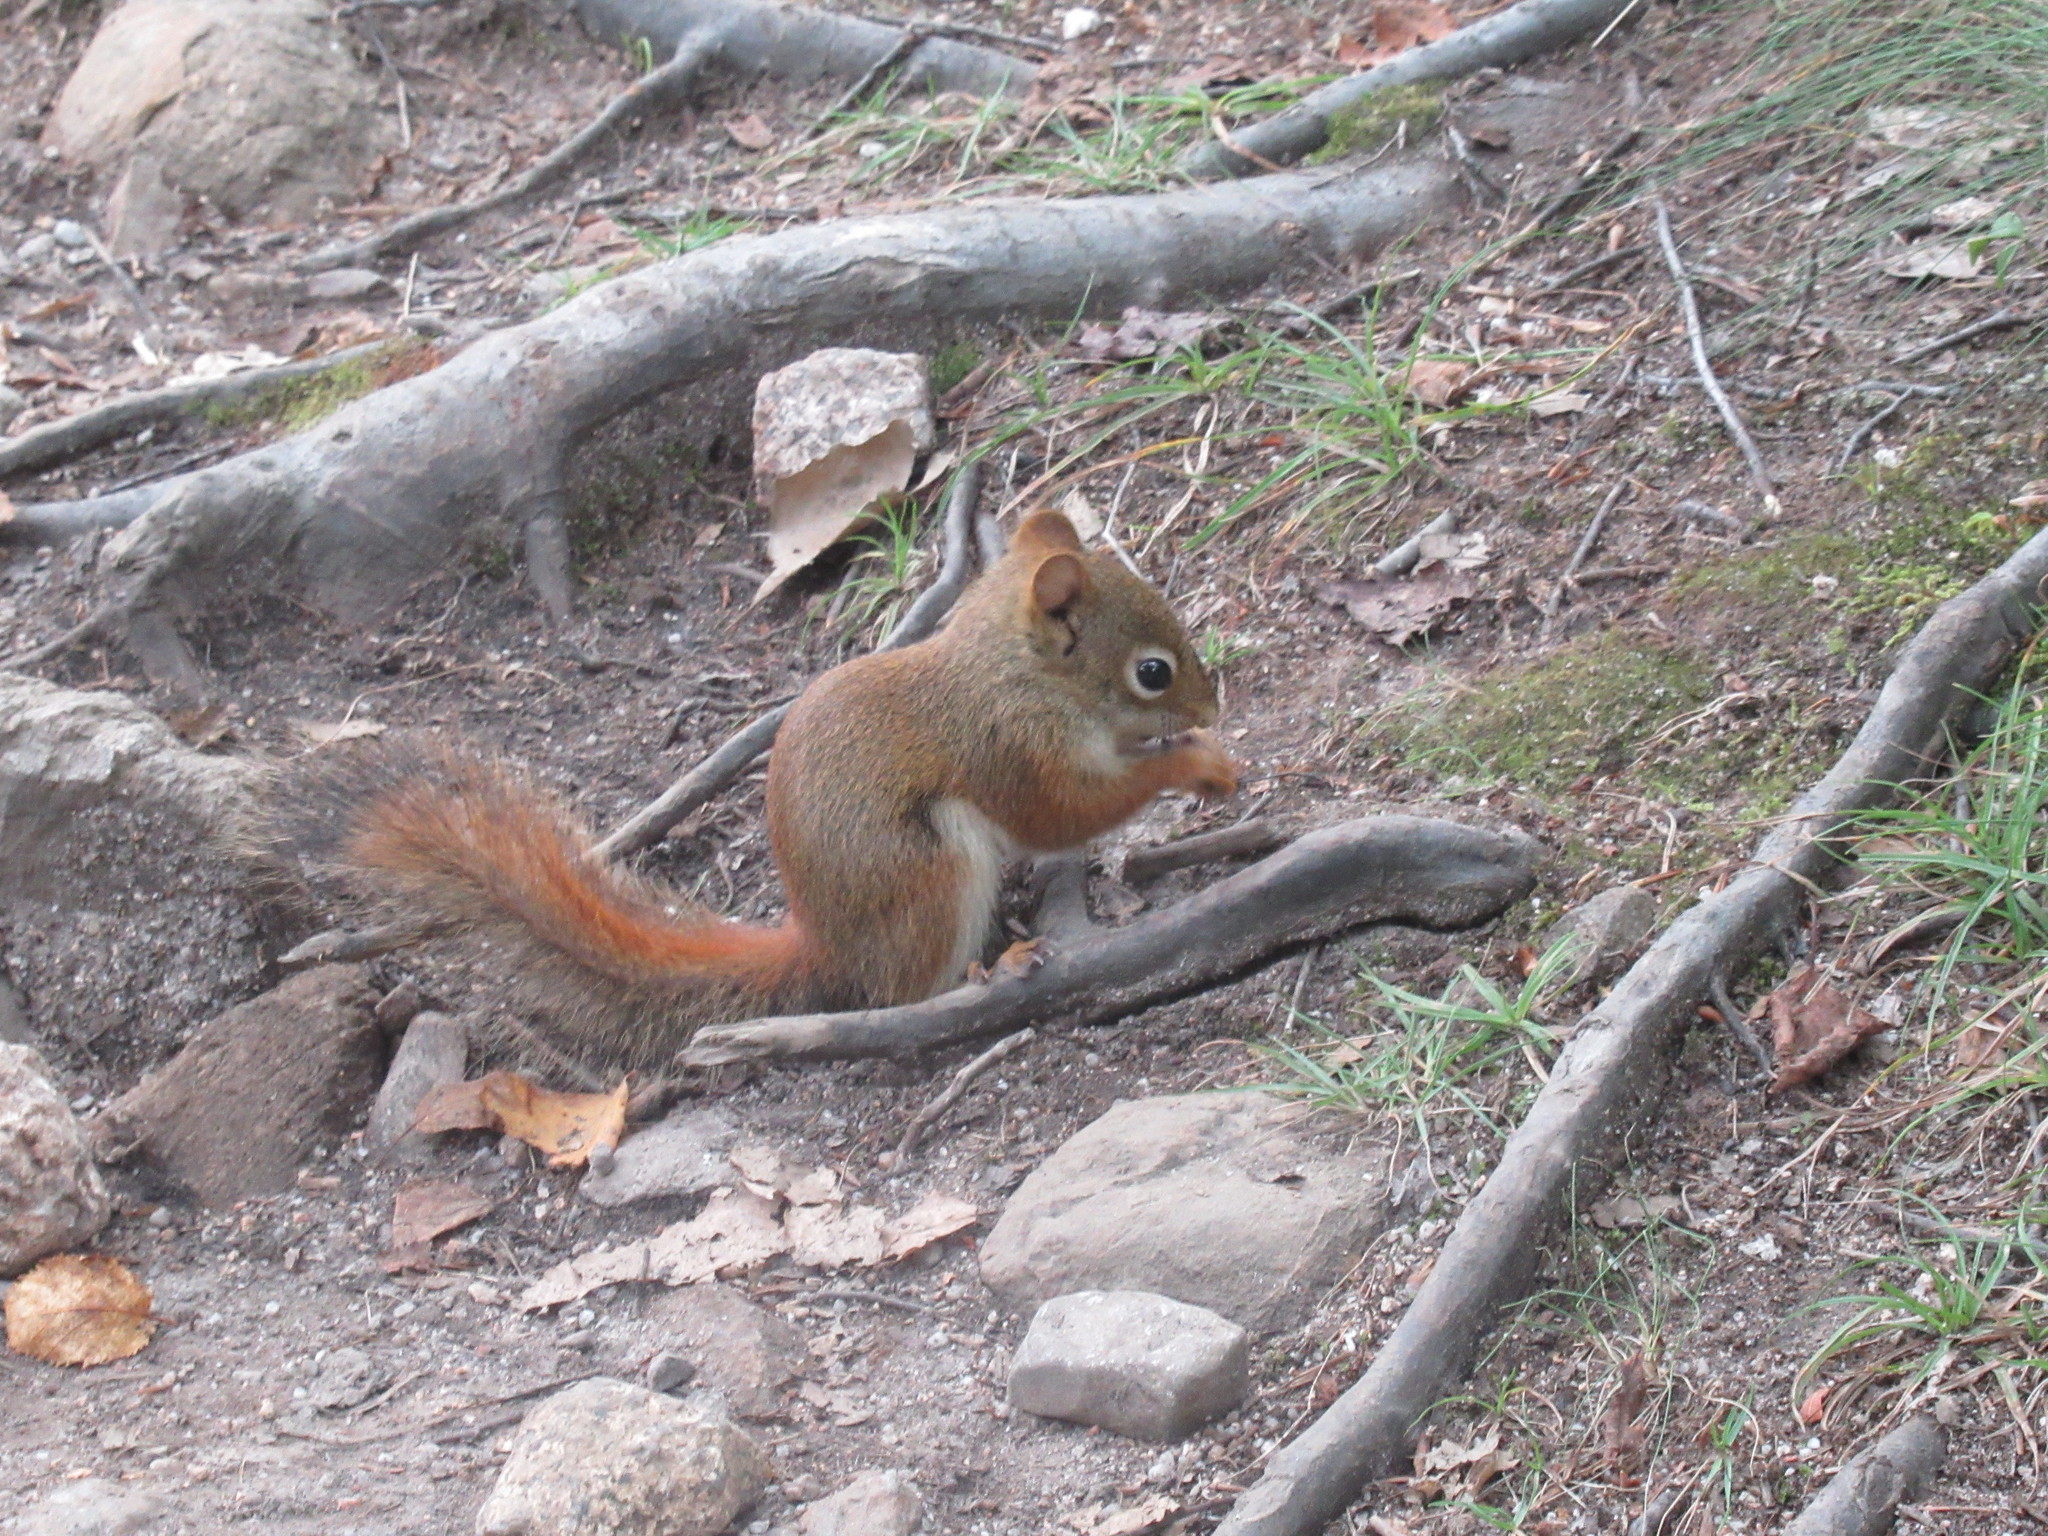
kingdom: Animalia
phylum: Chordata
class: Mammalia
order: Rodentia
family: Sciuridae
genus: Tamiasciurus
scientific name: Tamiasciurus hudsonicus
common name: Red squirrel
